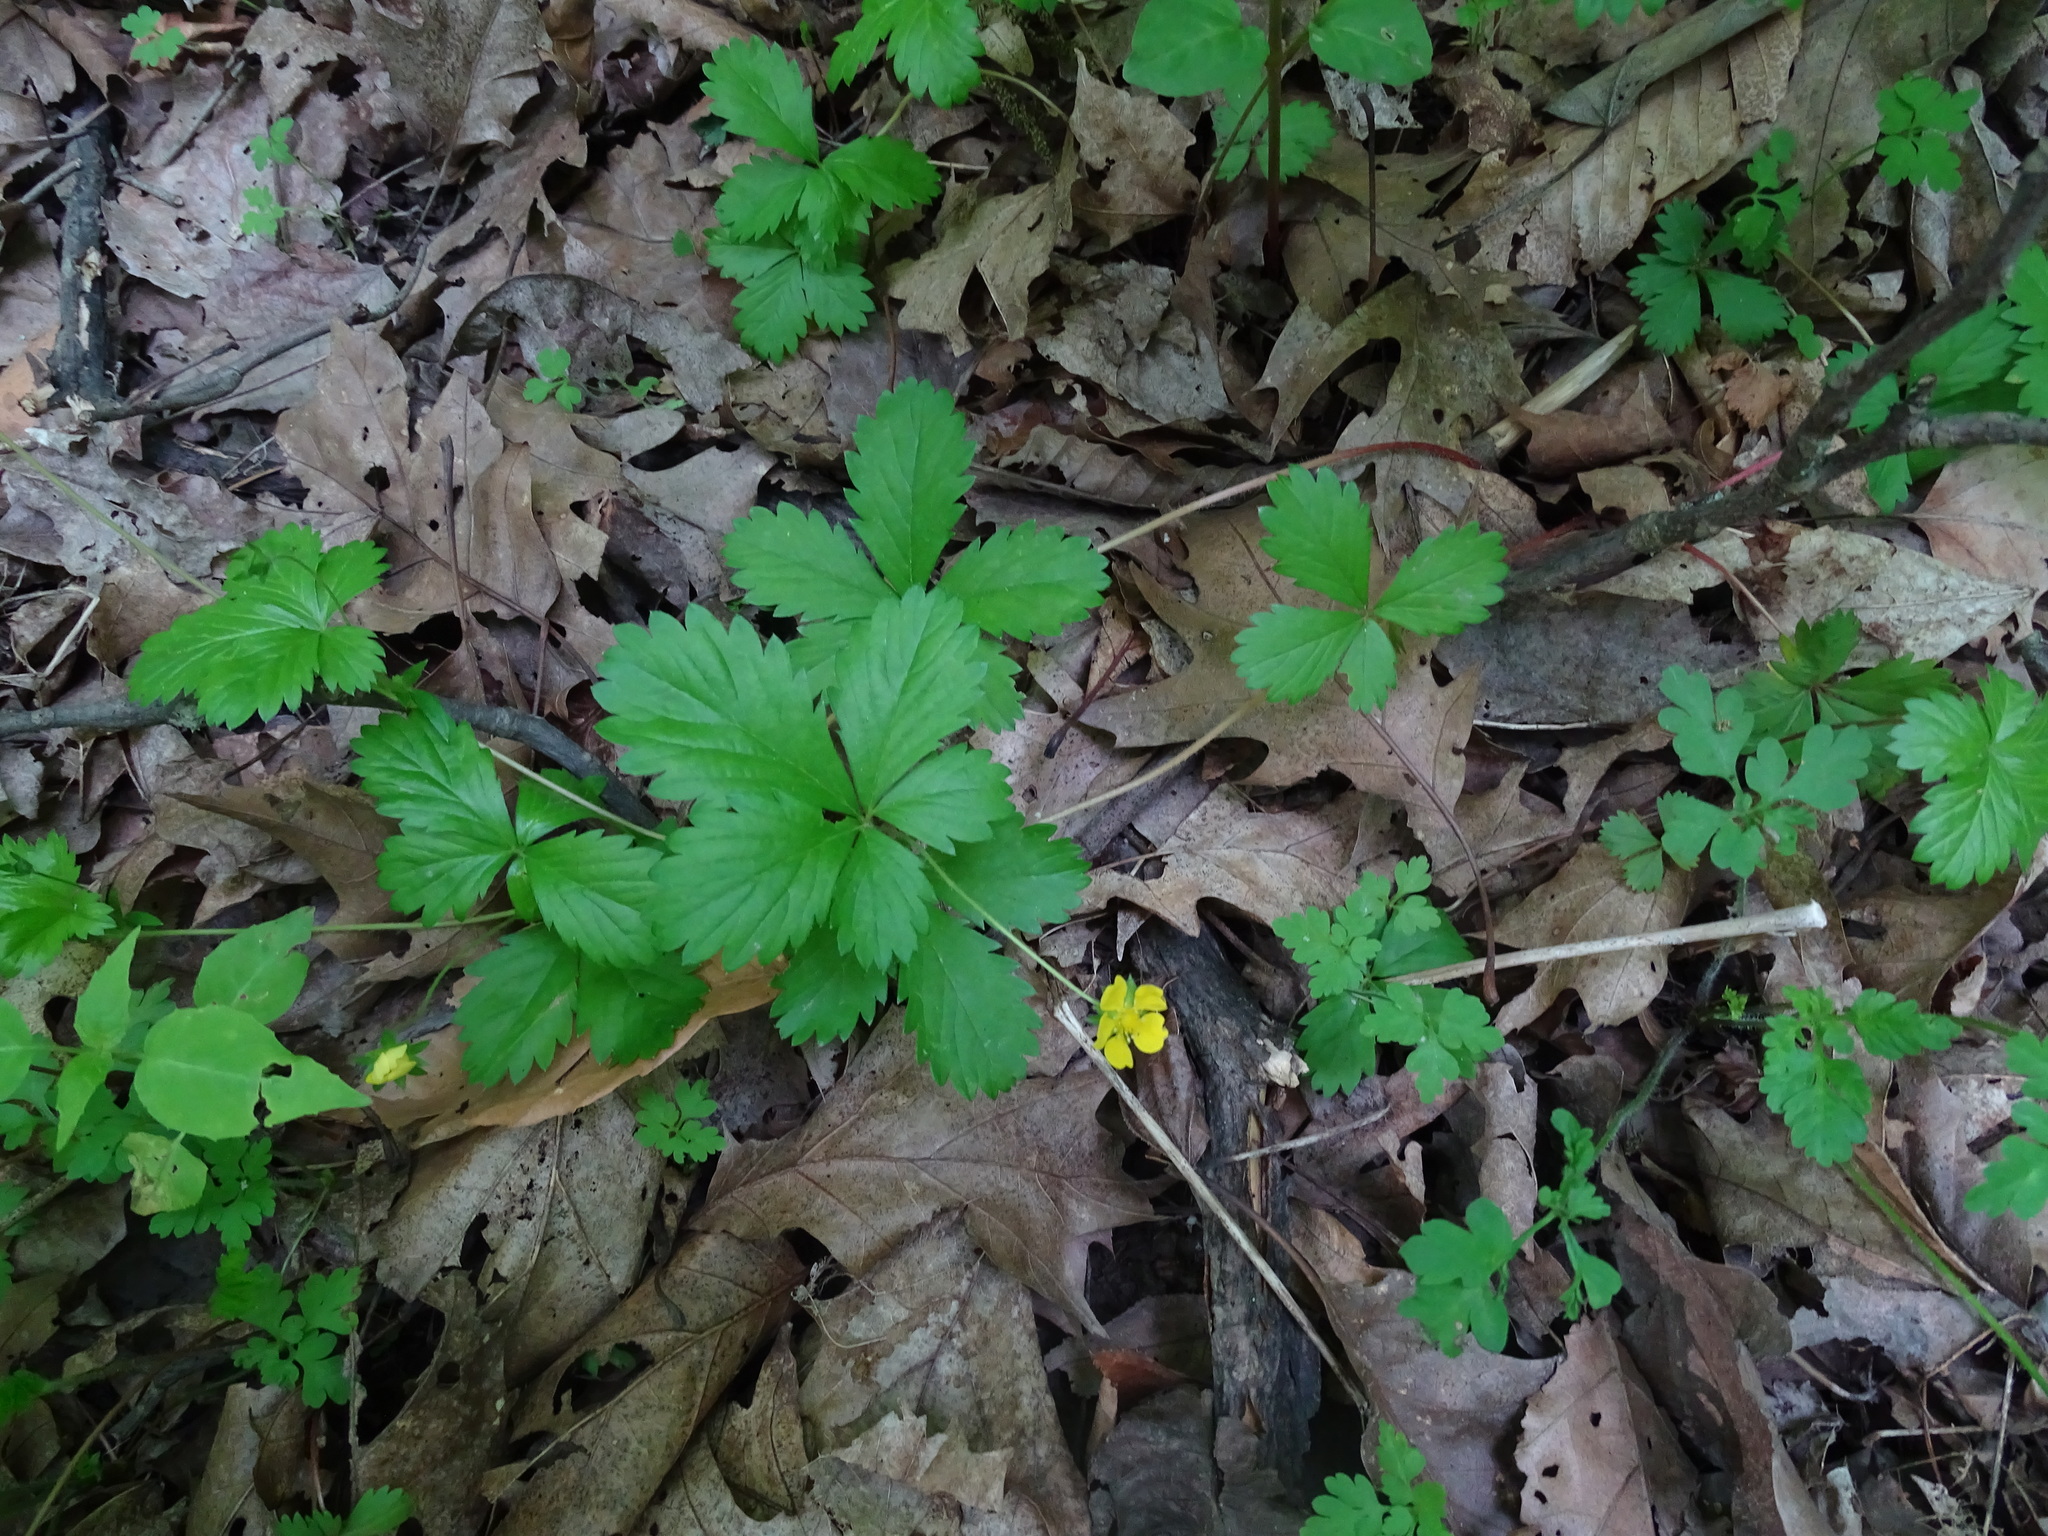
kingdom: Plantae
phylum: Tracheophyta
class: Magnoliopsida
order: Rosales
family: Rosaceae
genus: Potentilla
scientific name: Potentilla simplex
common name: Old field cinquefoil
